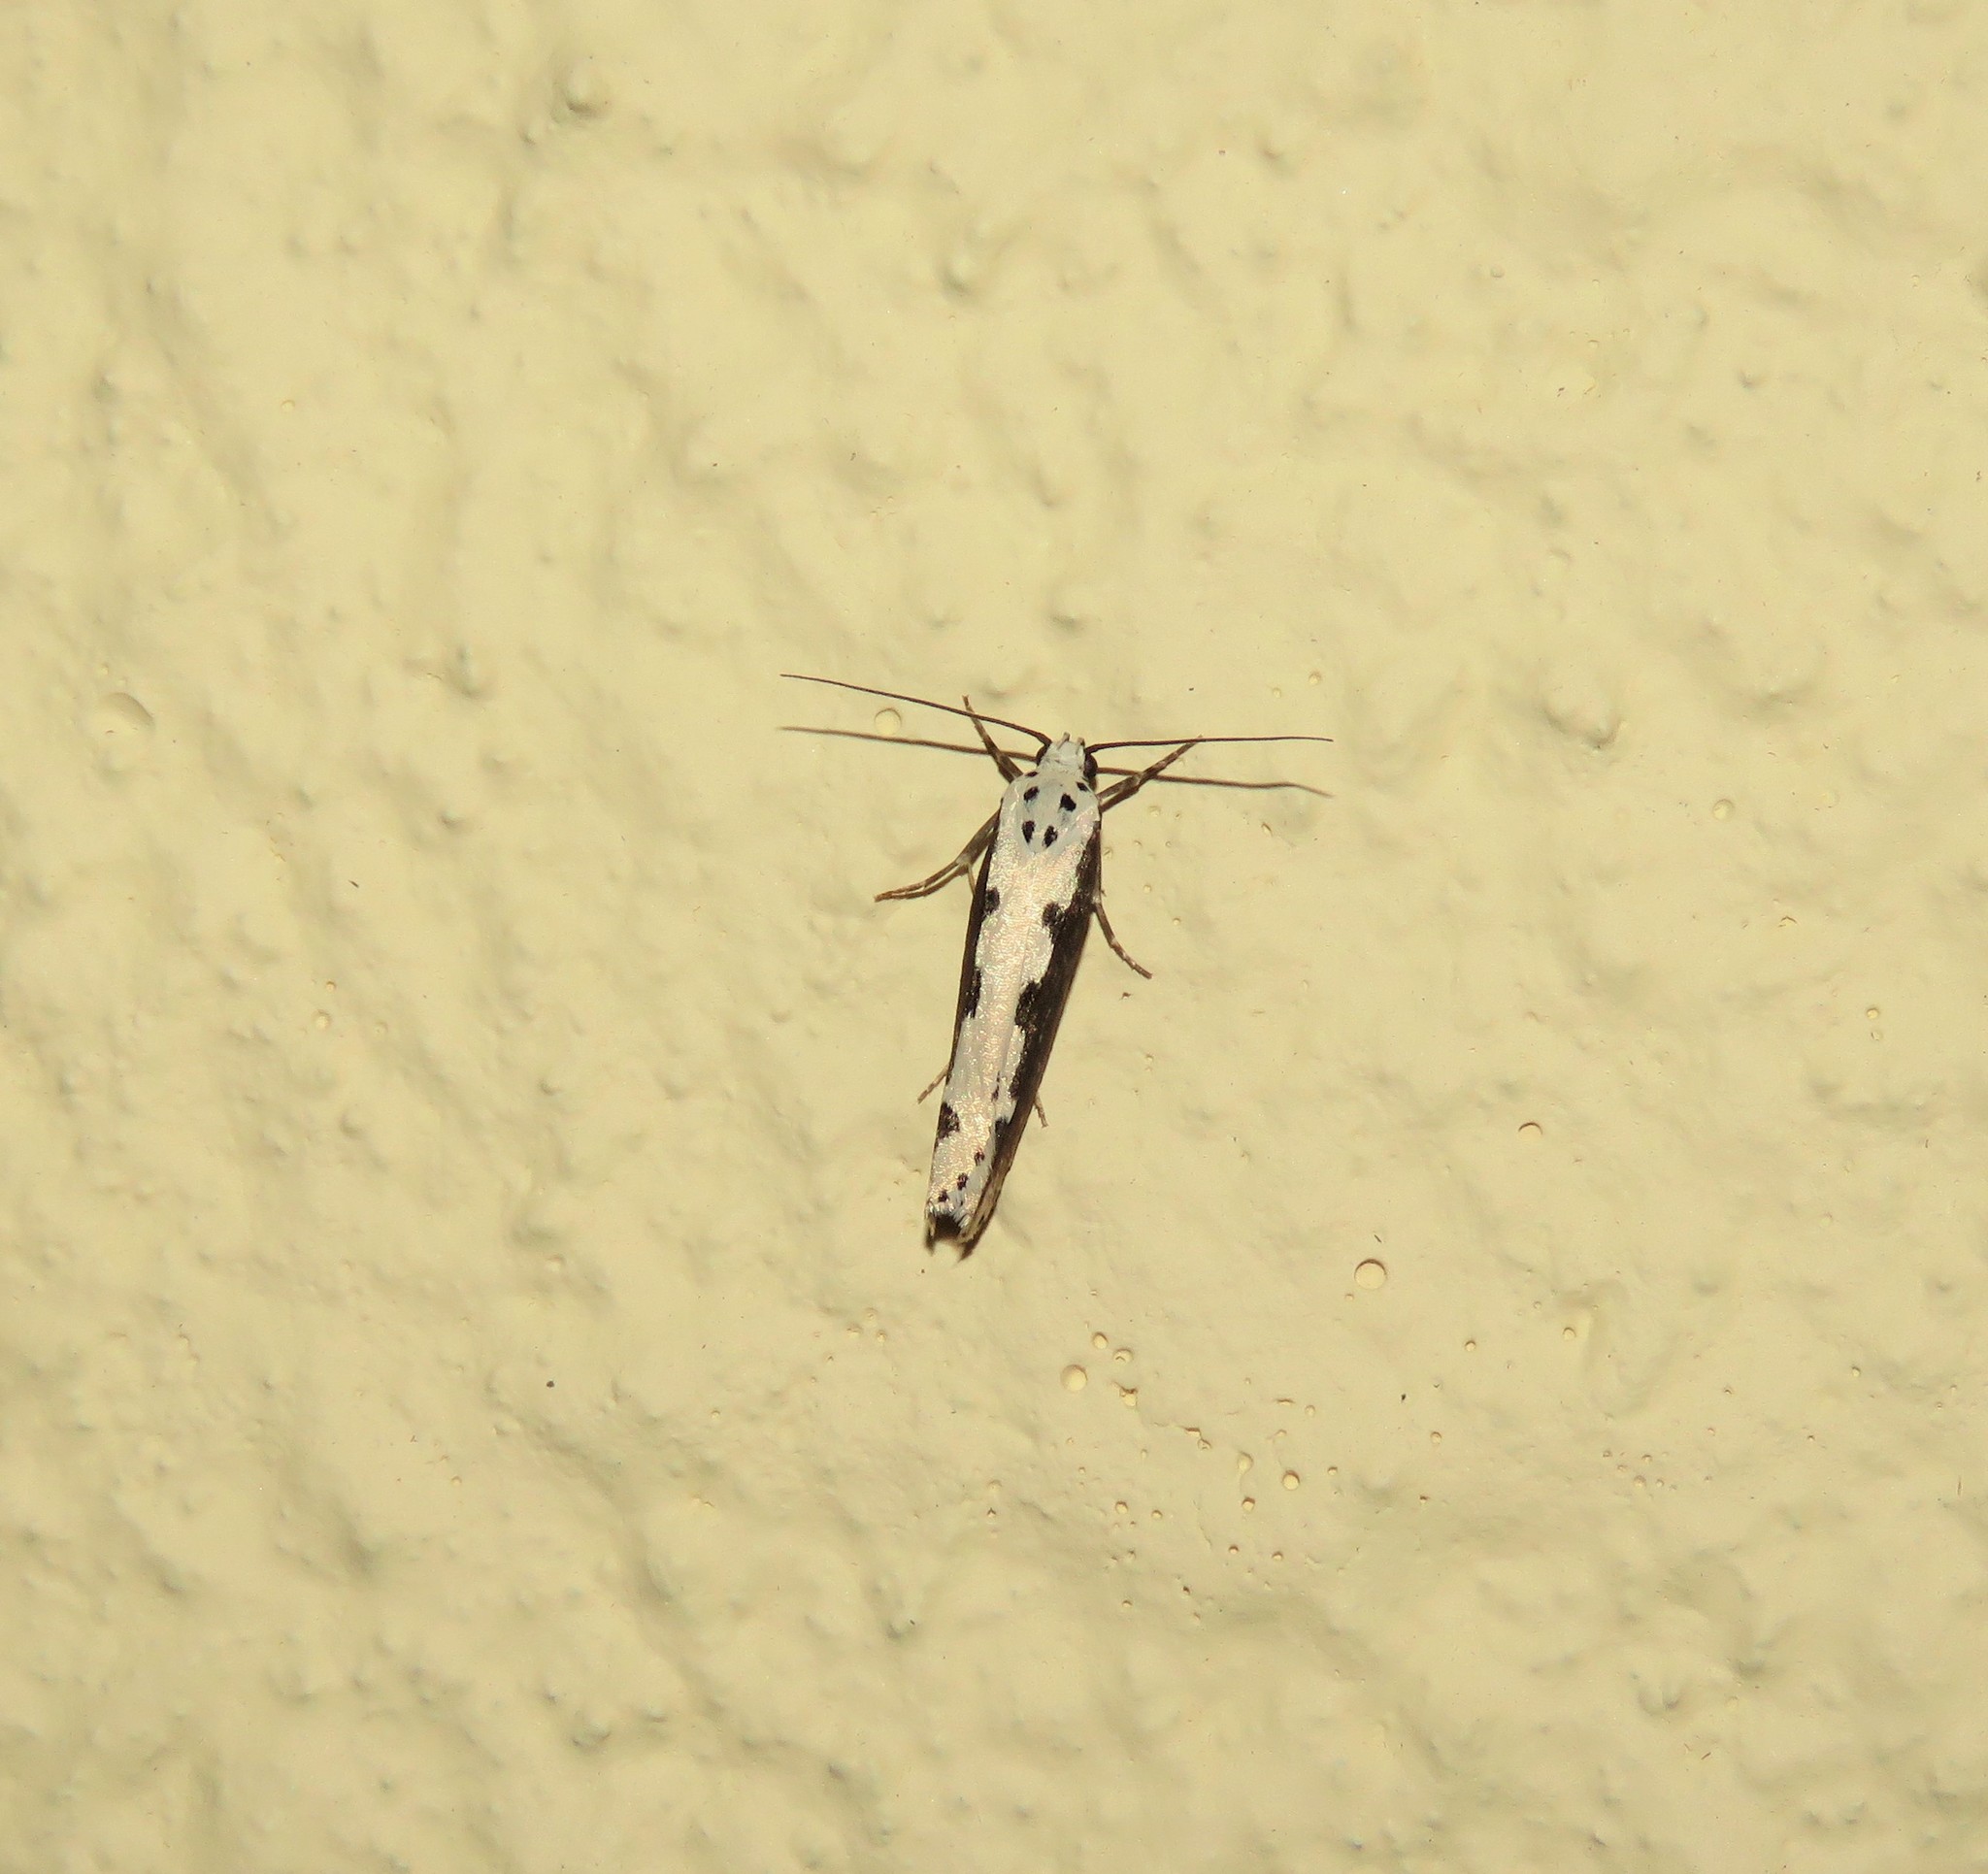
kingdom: Animalia
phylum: Arthropoda
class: Insecta
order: Lepidoptera
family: Ethmiidae
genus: Ethmia
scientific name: Ethmia bipunctella
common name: Bordered ermel
